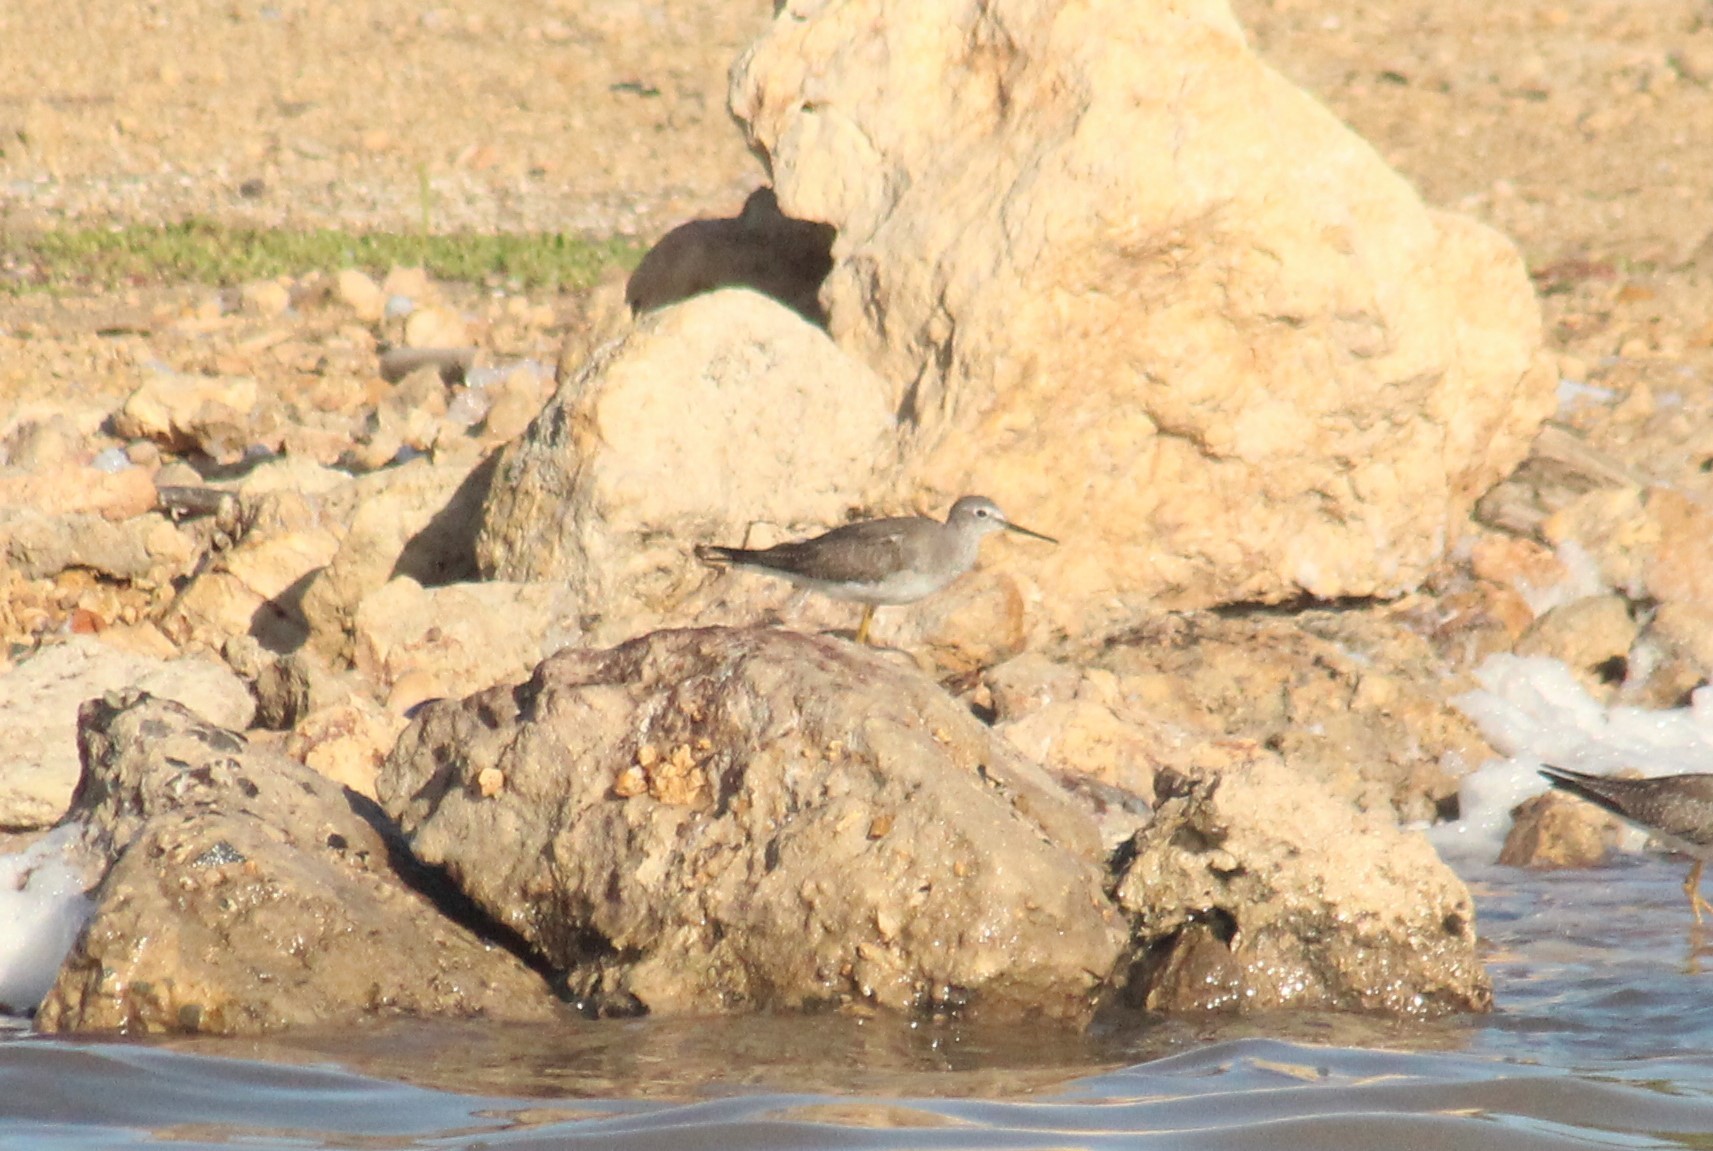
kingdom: Animalia
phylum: Chordata
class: Aves
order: Charadriiformes
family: Scolopacidae
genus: Tringa
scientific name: Tringa flavipes
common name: Lesser yellowlegs
